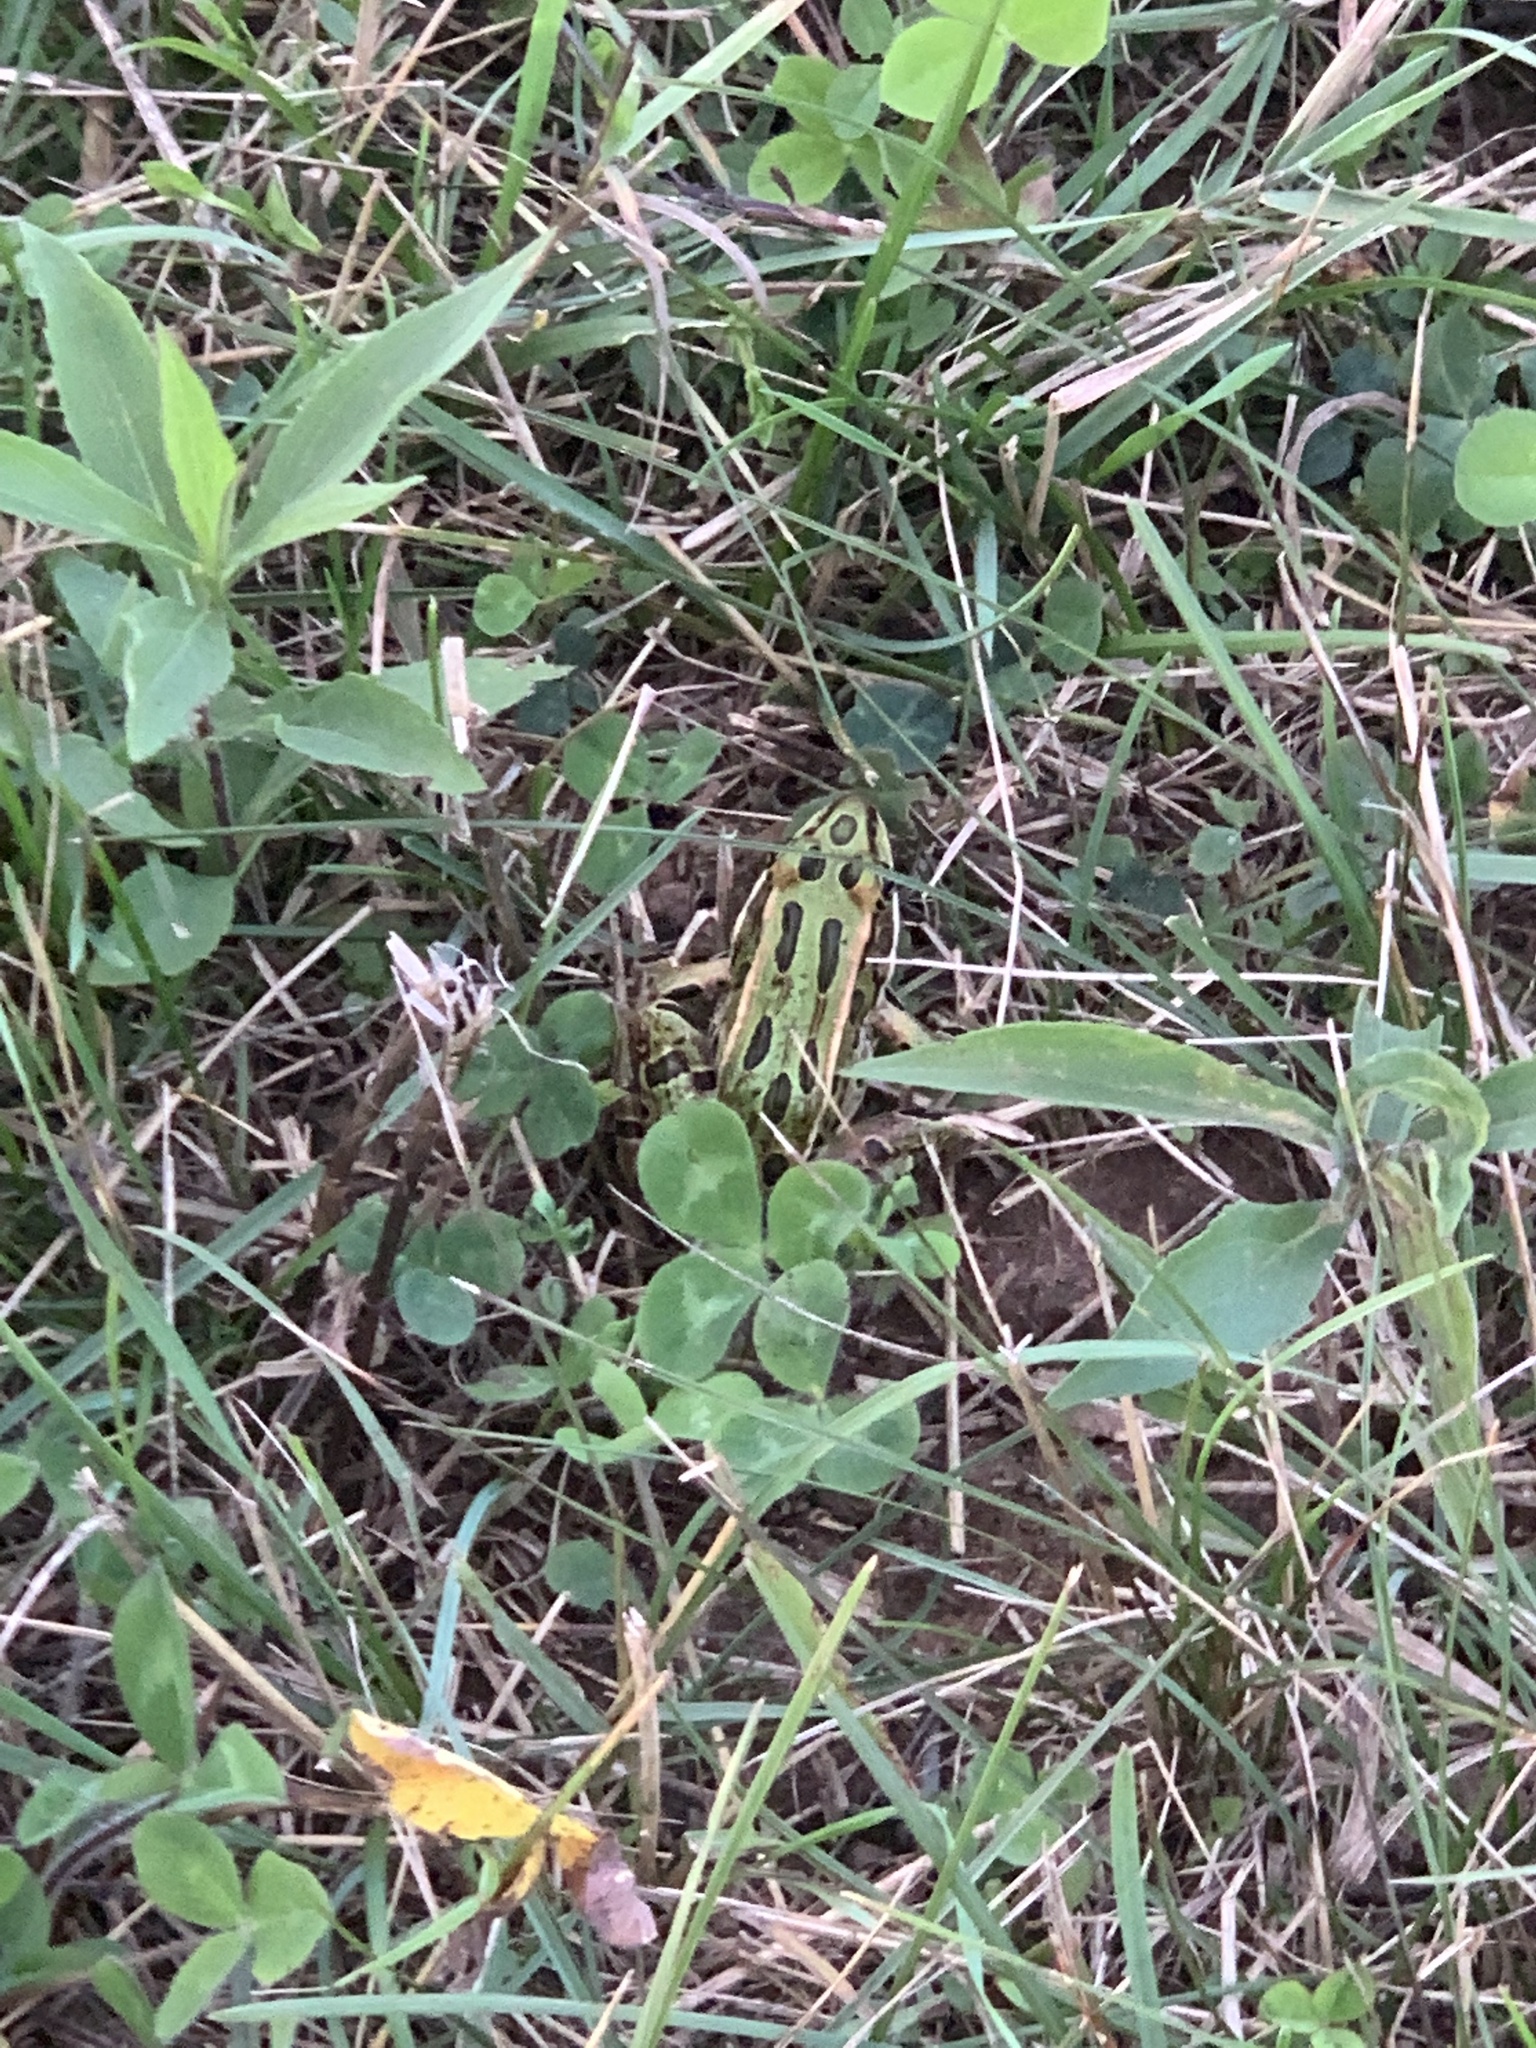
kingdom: Animalia
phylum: Chordata
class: Amphibia
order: Anura
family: Ranidae
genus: Lithobates
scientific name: Lithobates pipiens
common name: Northern leopard frog
